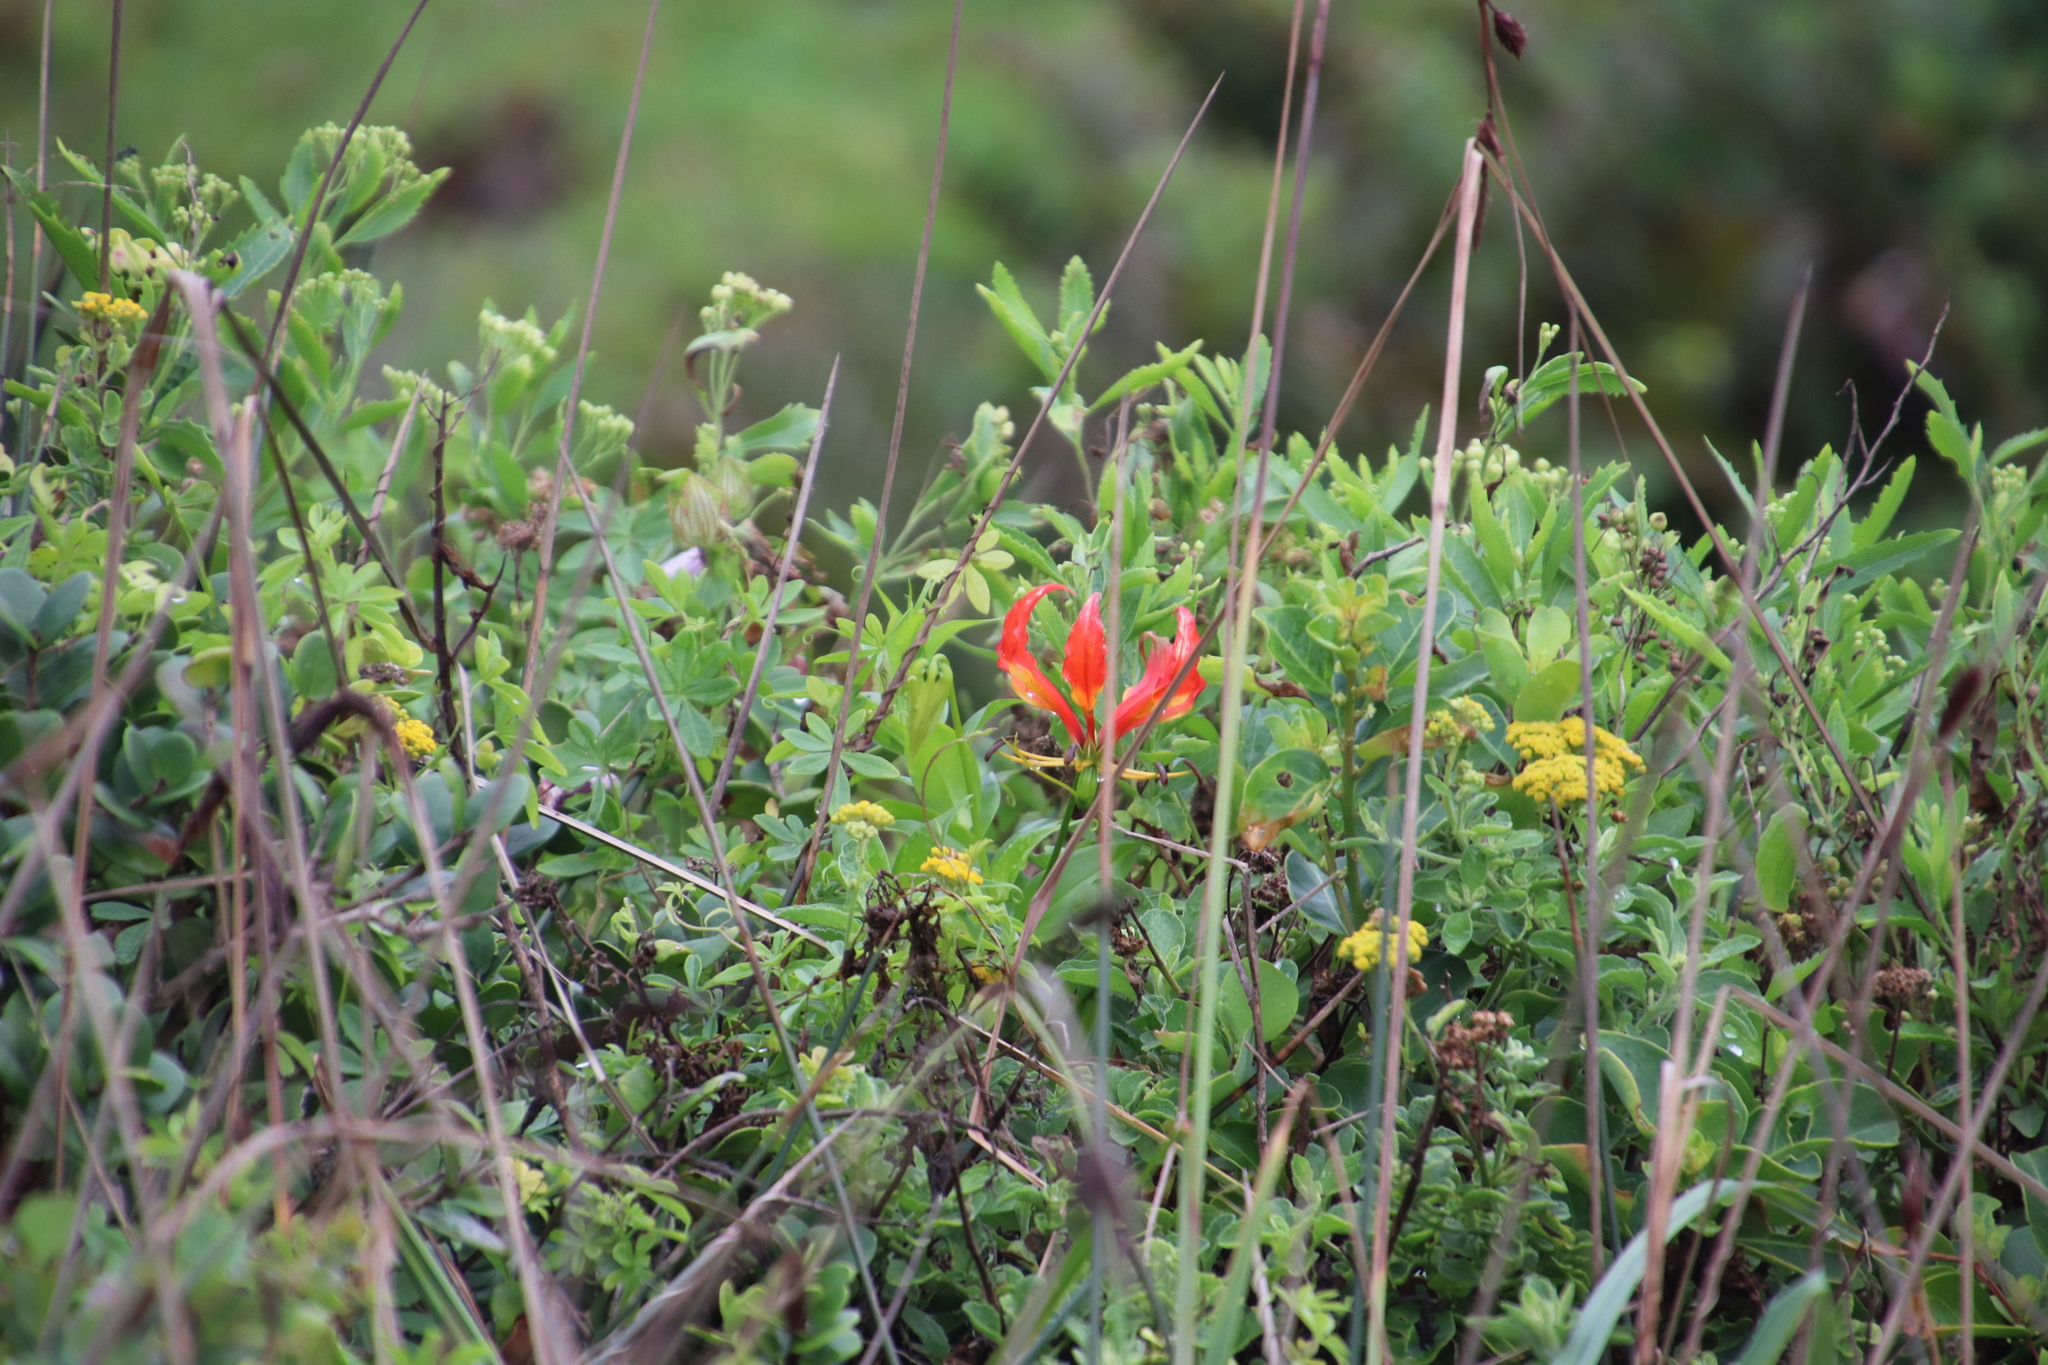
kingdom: Plantae
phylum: Tracheophyta
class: Liliopsida
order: Liliales
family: Colchicaceae
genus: Gloriosa
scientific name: Gloriosa superba
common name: Flame lily
